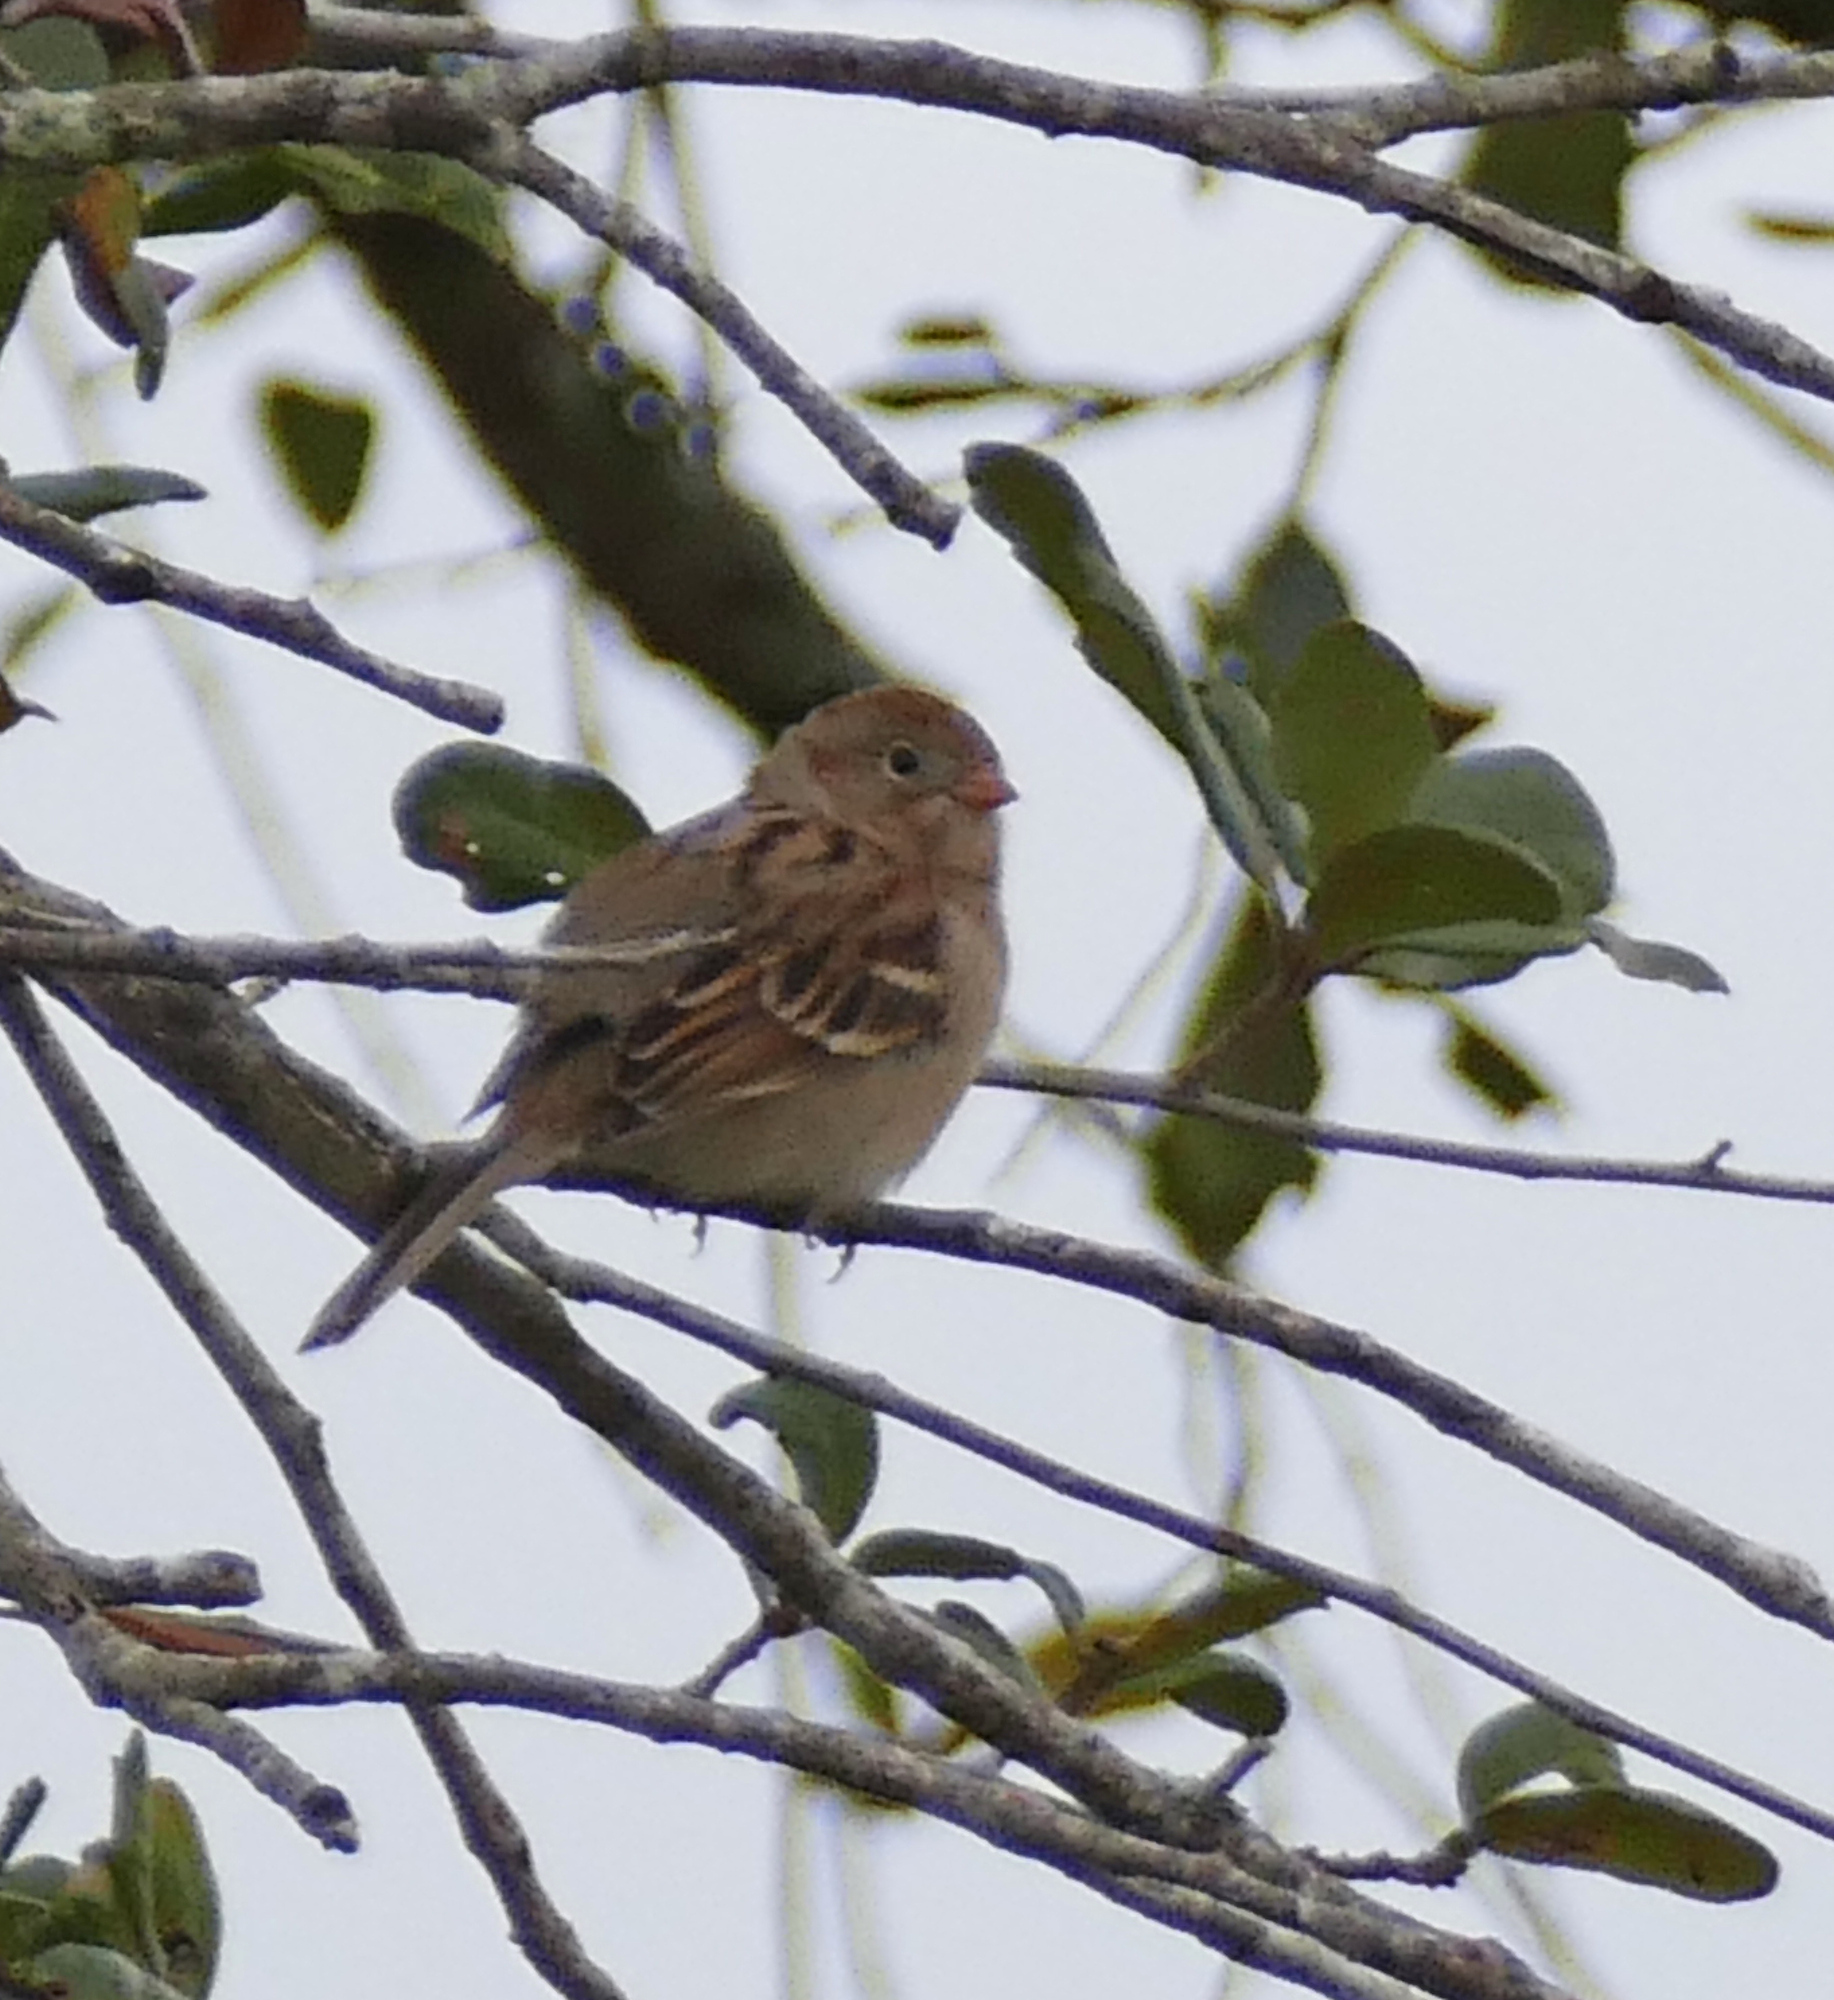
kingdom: Animalia
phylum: Chordata
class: Aves
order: Passeriformes
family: Passerellidae
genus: Spizella
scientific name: Spizella pusilla
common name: Field sparrow
